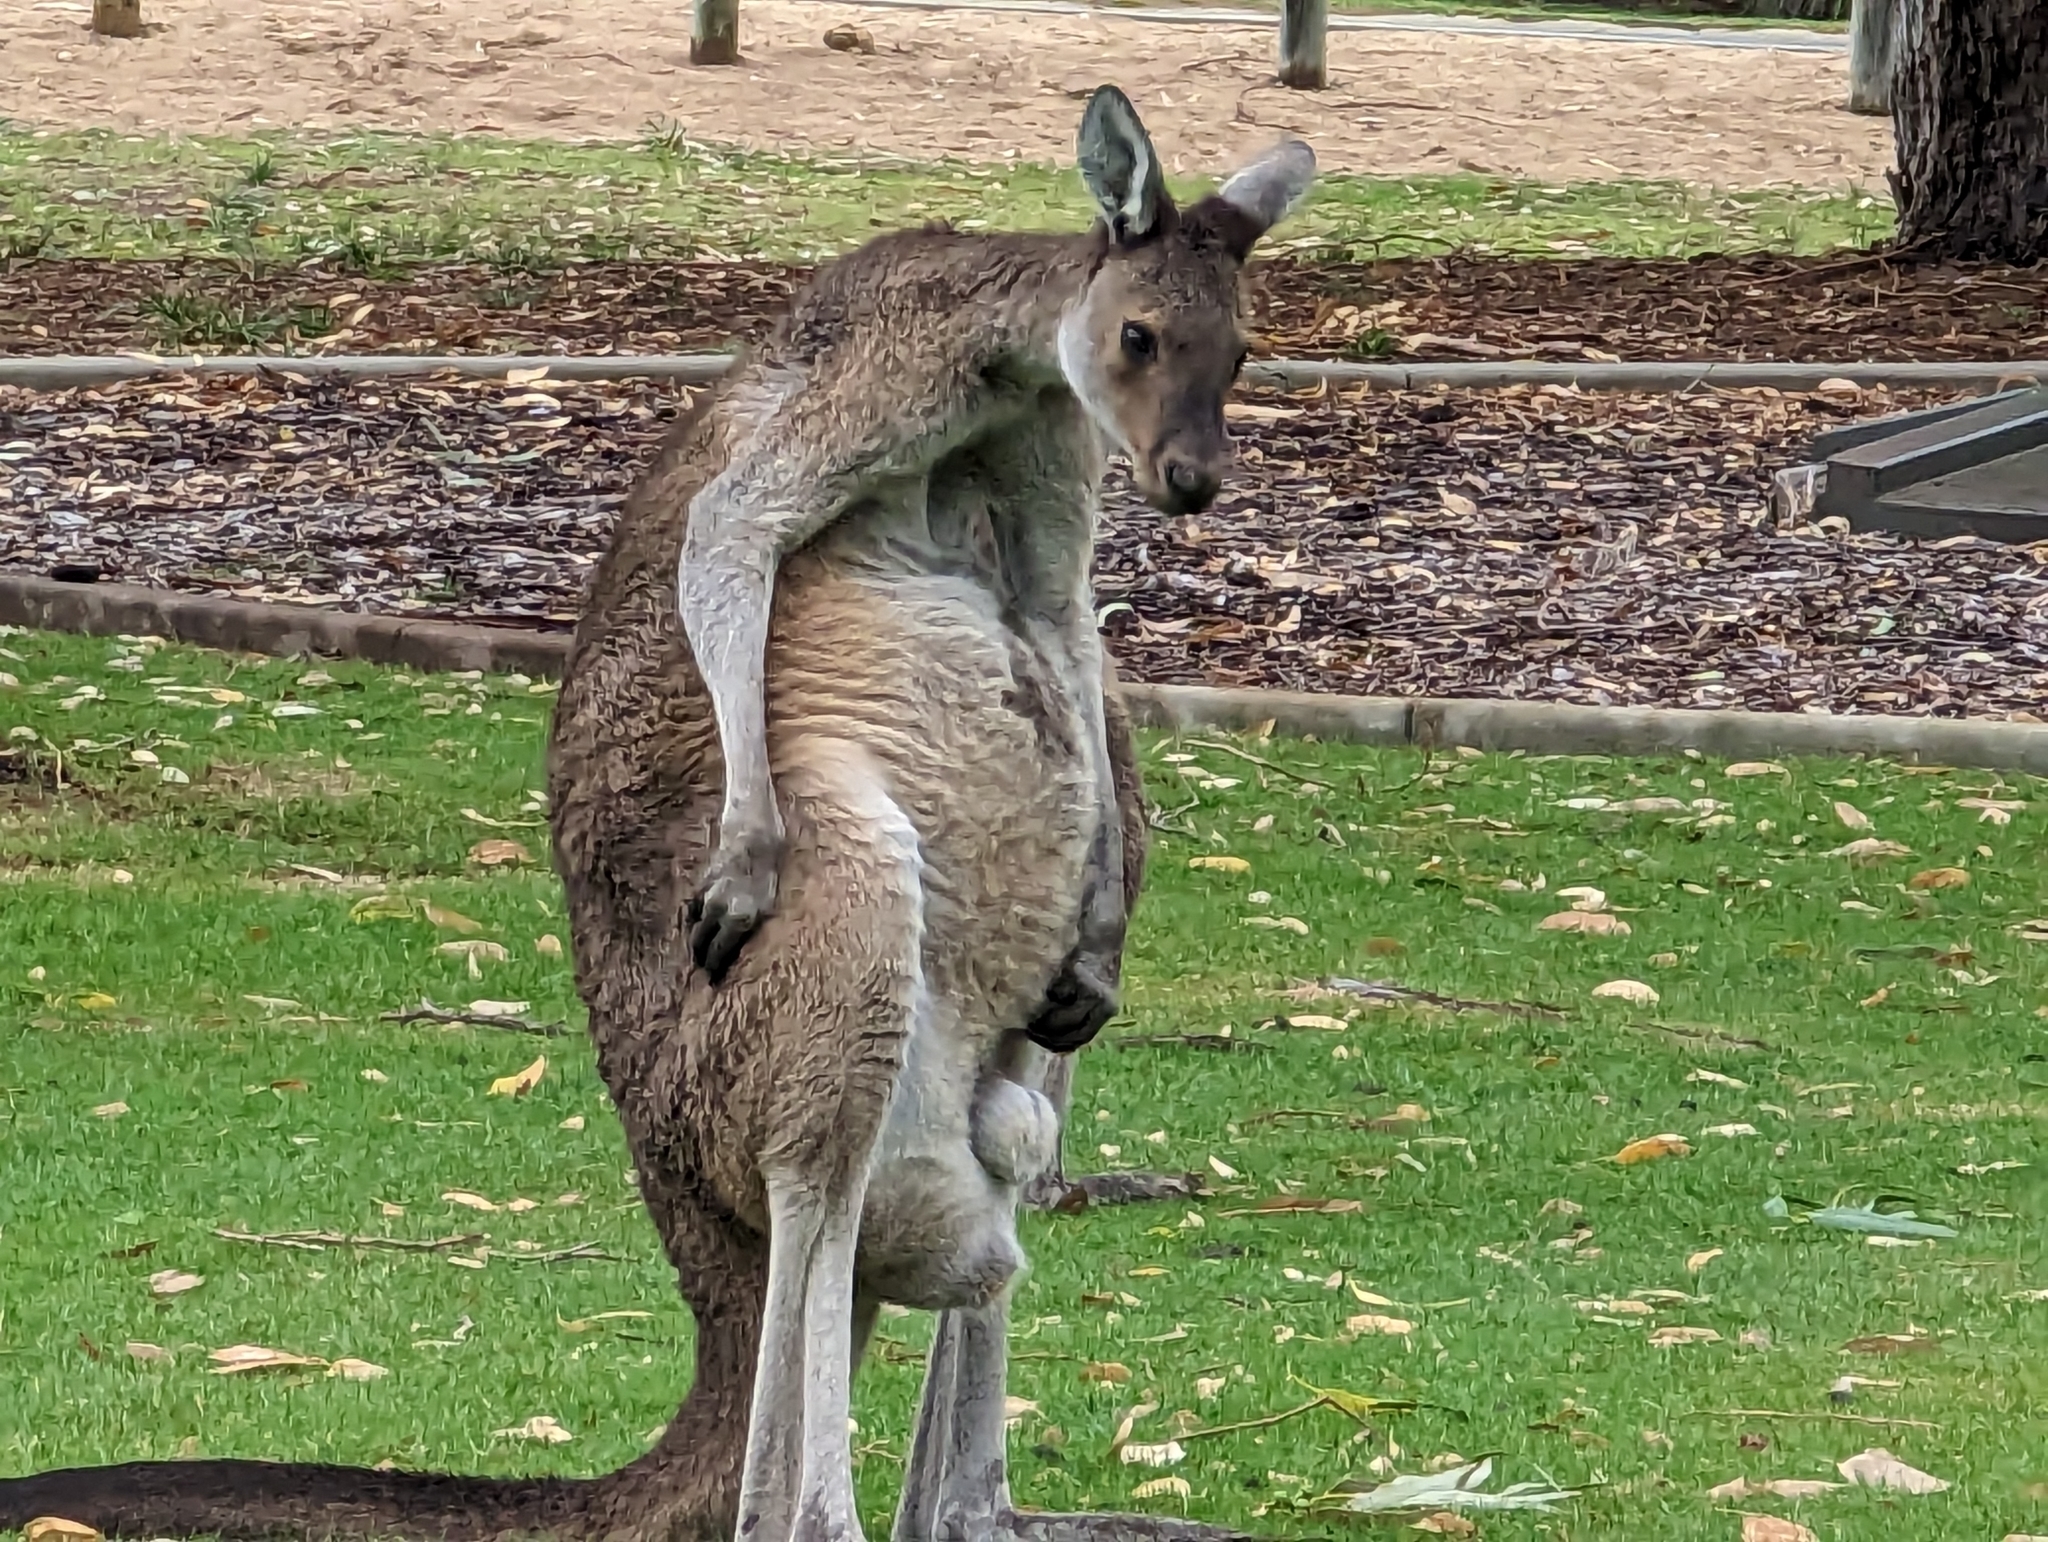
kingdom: Animalia
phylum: Chordata
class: Mammalia
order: Diprotodontia
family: Macropodidae
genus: Macropus
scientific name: Macropus fuliginosus
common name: Western grey kangaroo
